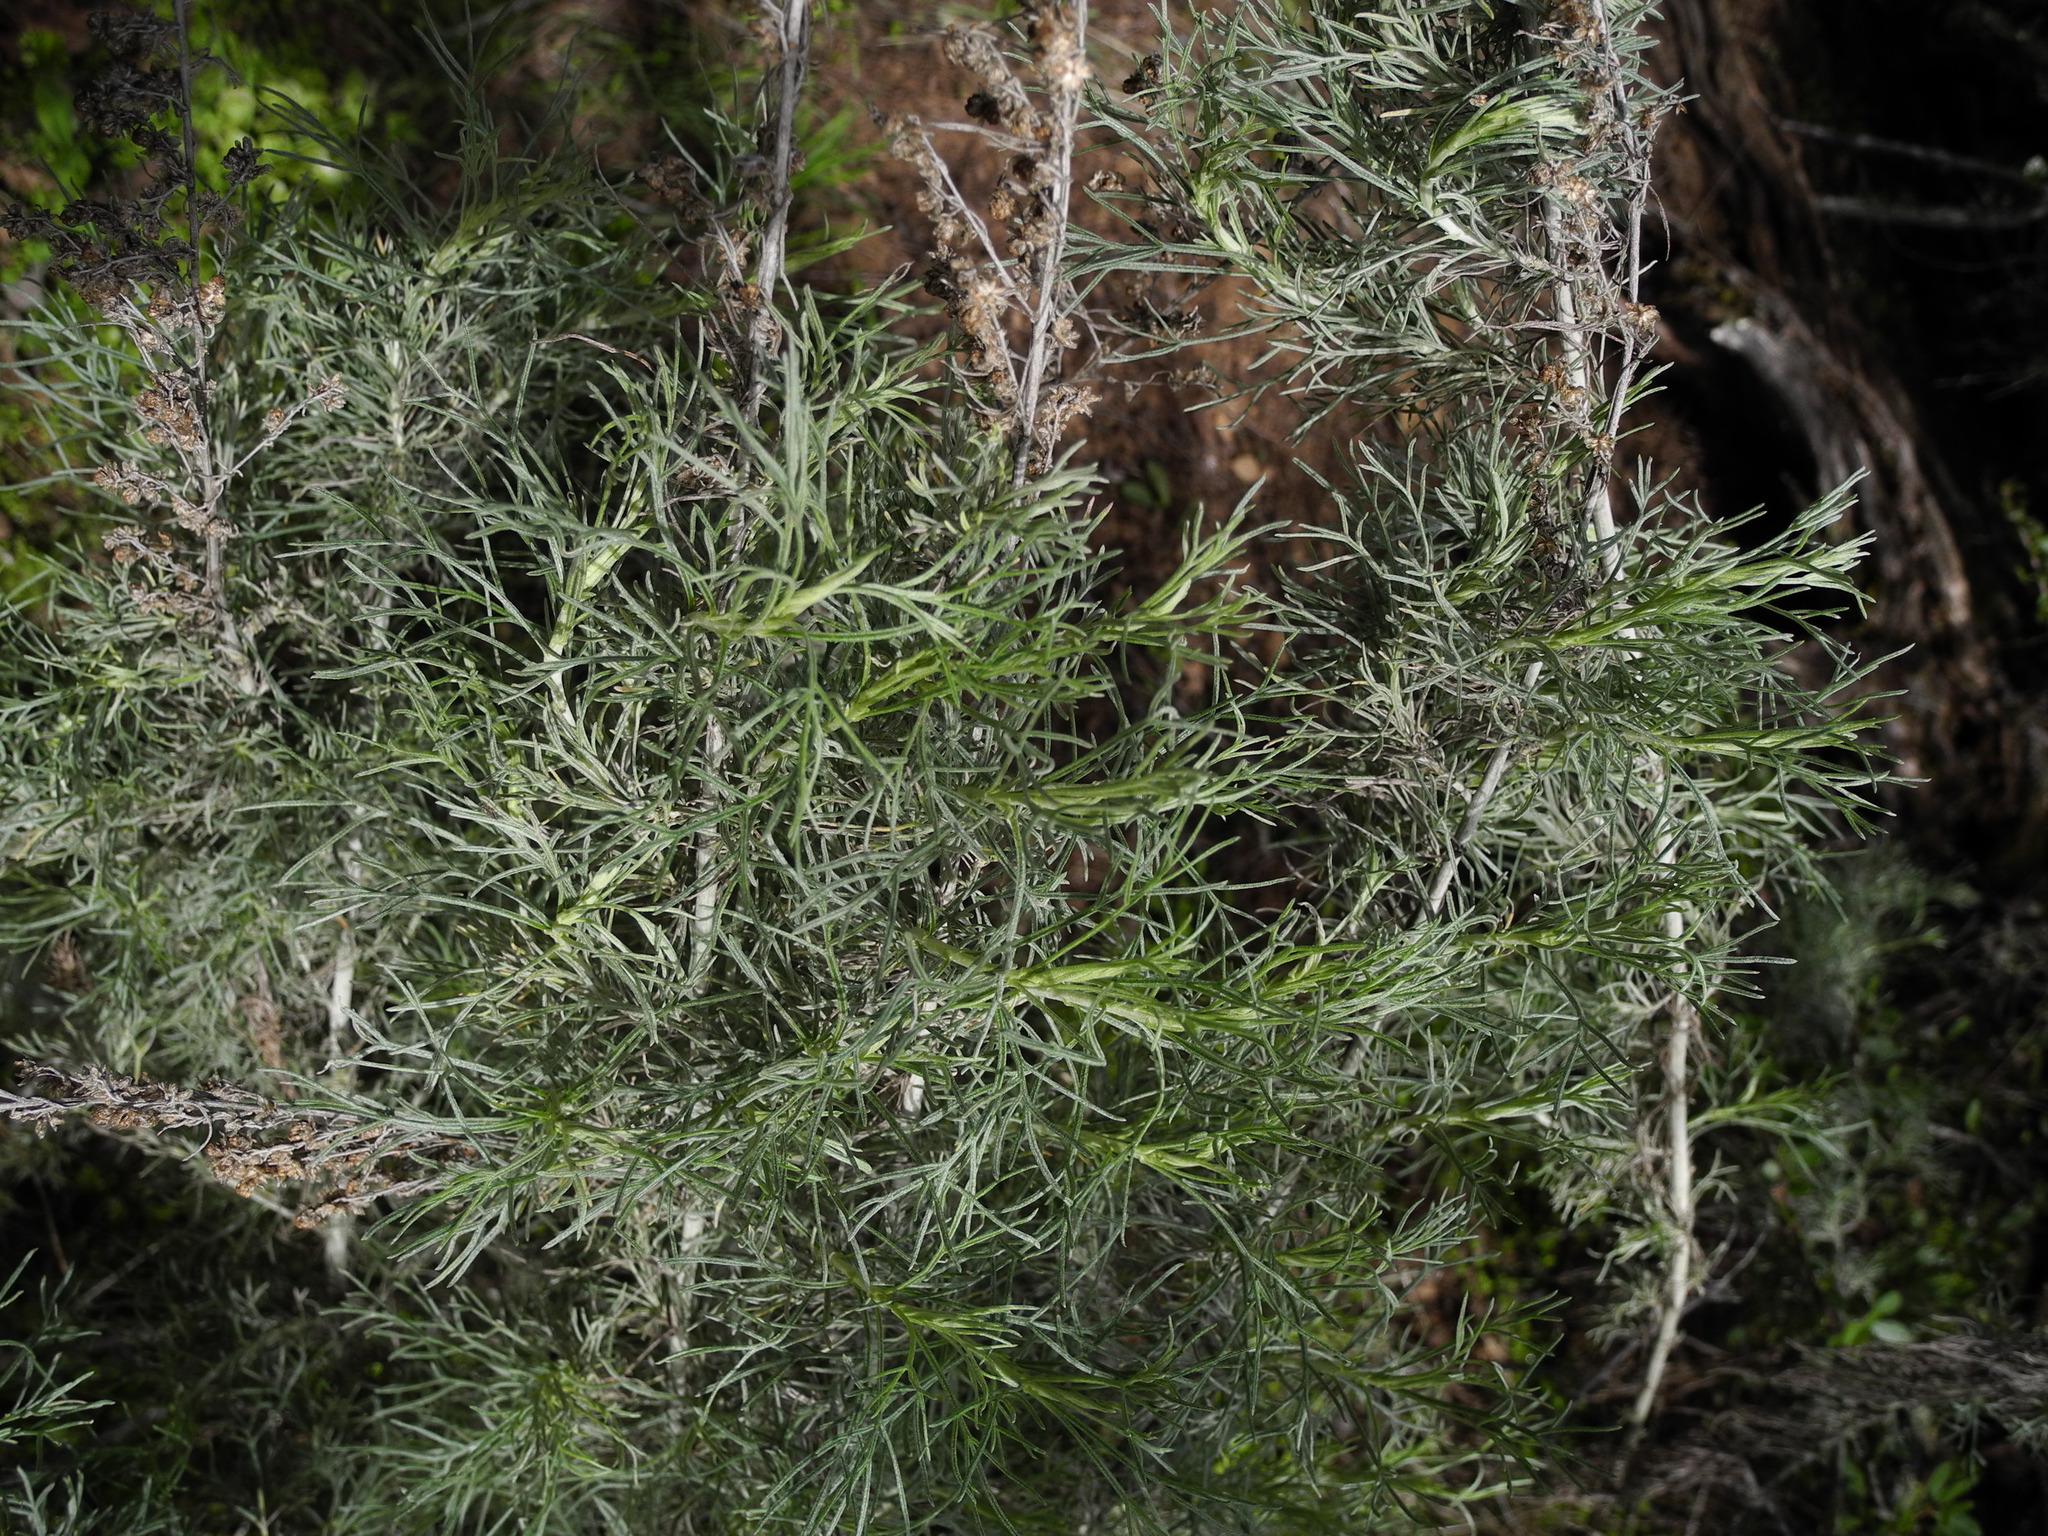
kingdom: Plantae
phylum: Tracheophyta
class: Magnoliopsida
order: Asterales
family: Asteraceae
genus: Artemisia
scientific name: Artemisia californica
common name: California sagebrush
